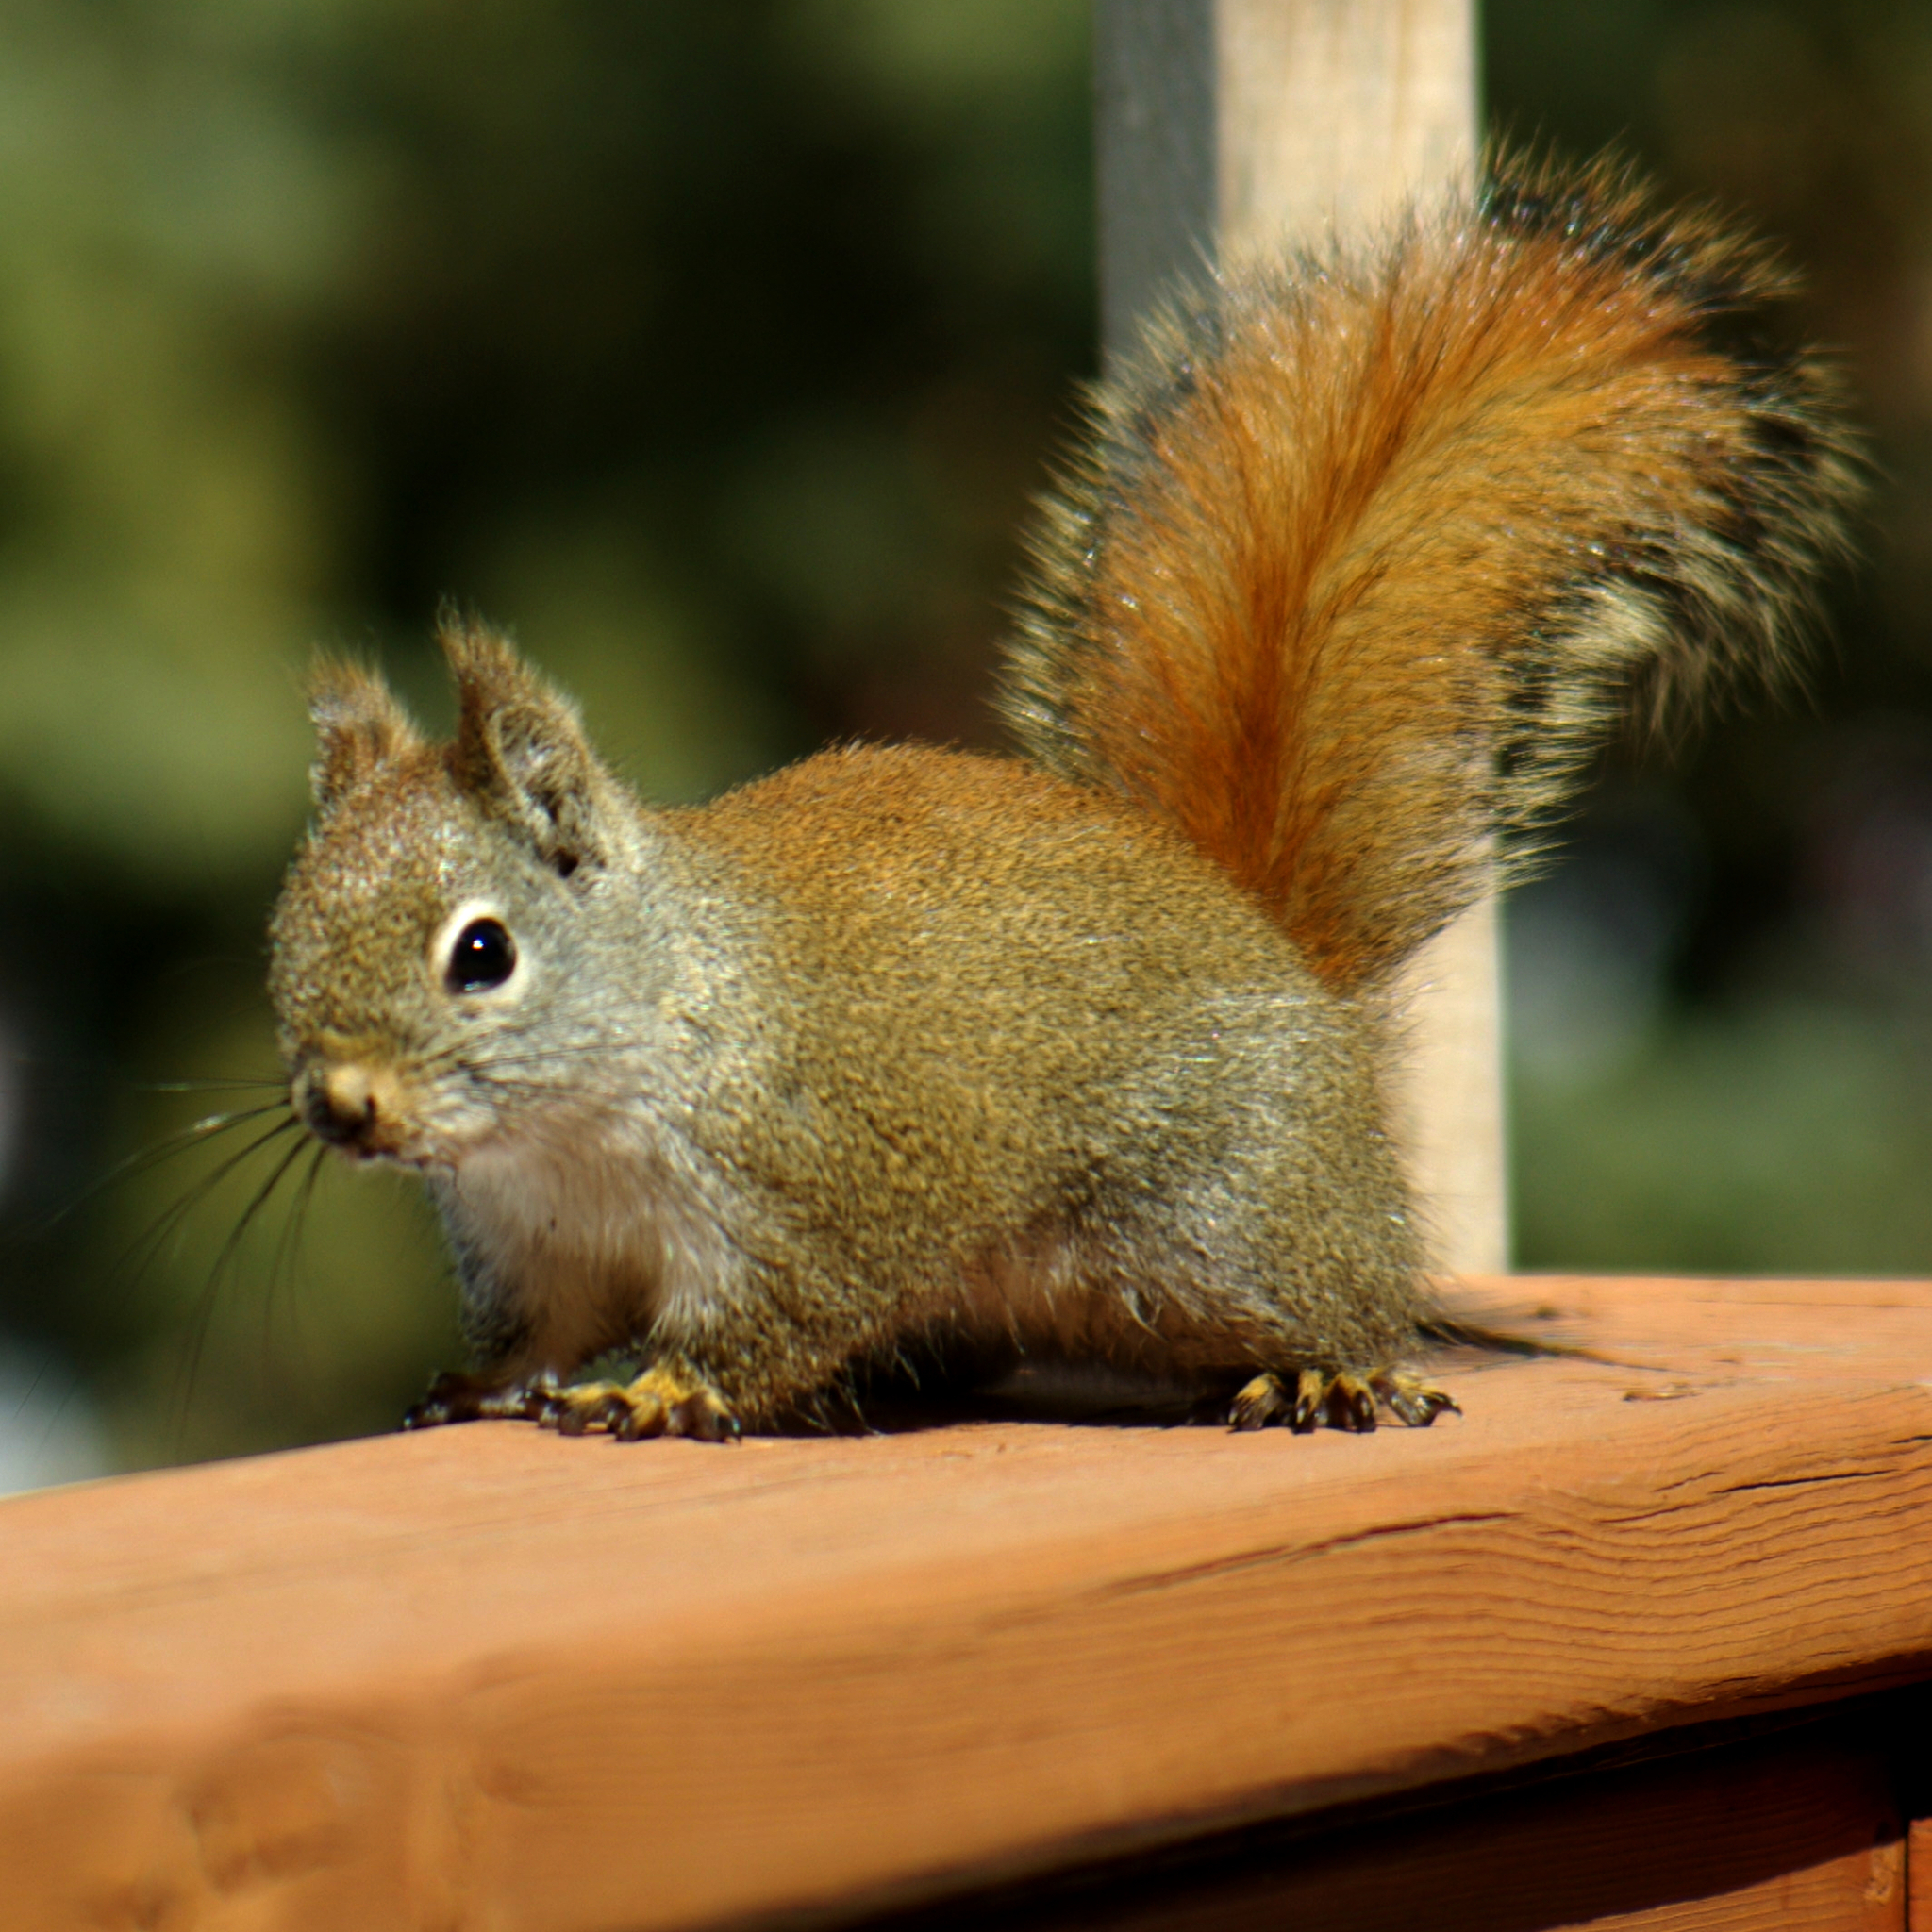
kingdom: Animalia
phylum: Chordata
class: Mammalia
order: Rodentia
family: Sciuridae
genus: Tamiasciurus
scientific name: Tamiasciurus hudsonicus
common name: Red squirrel
